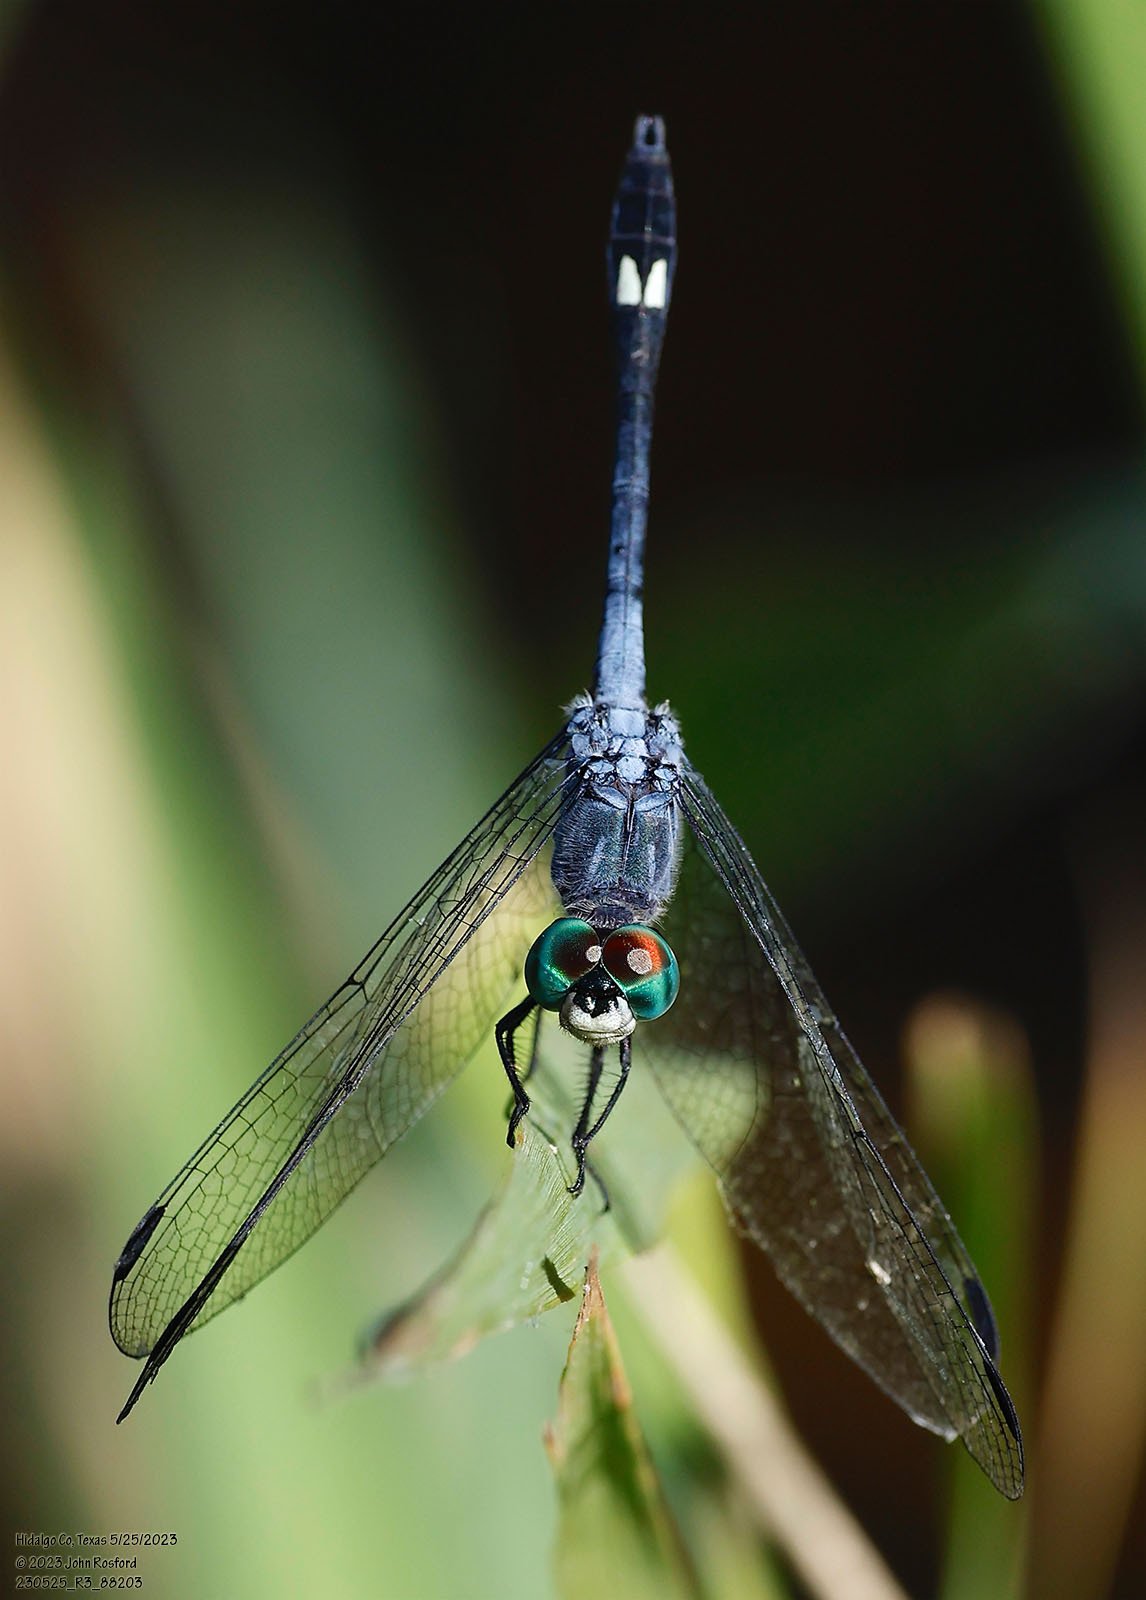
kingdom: Animalia
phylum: Arthropoda
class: Insecta
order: Odonata
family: Libellulidae
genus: Micrathyria
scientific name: Micrathyria aequalis
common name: Spot-tailed dasher
